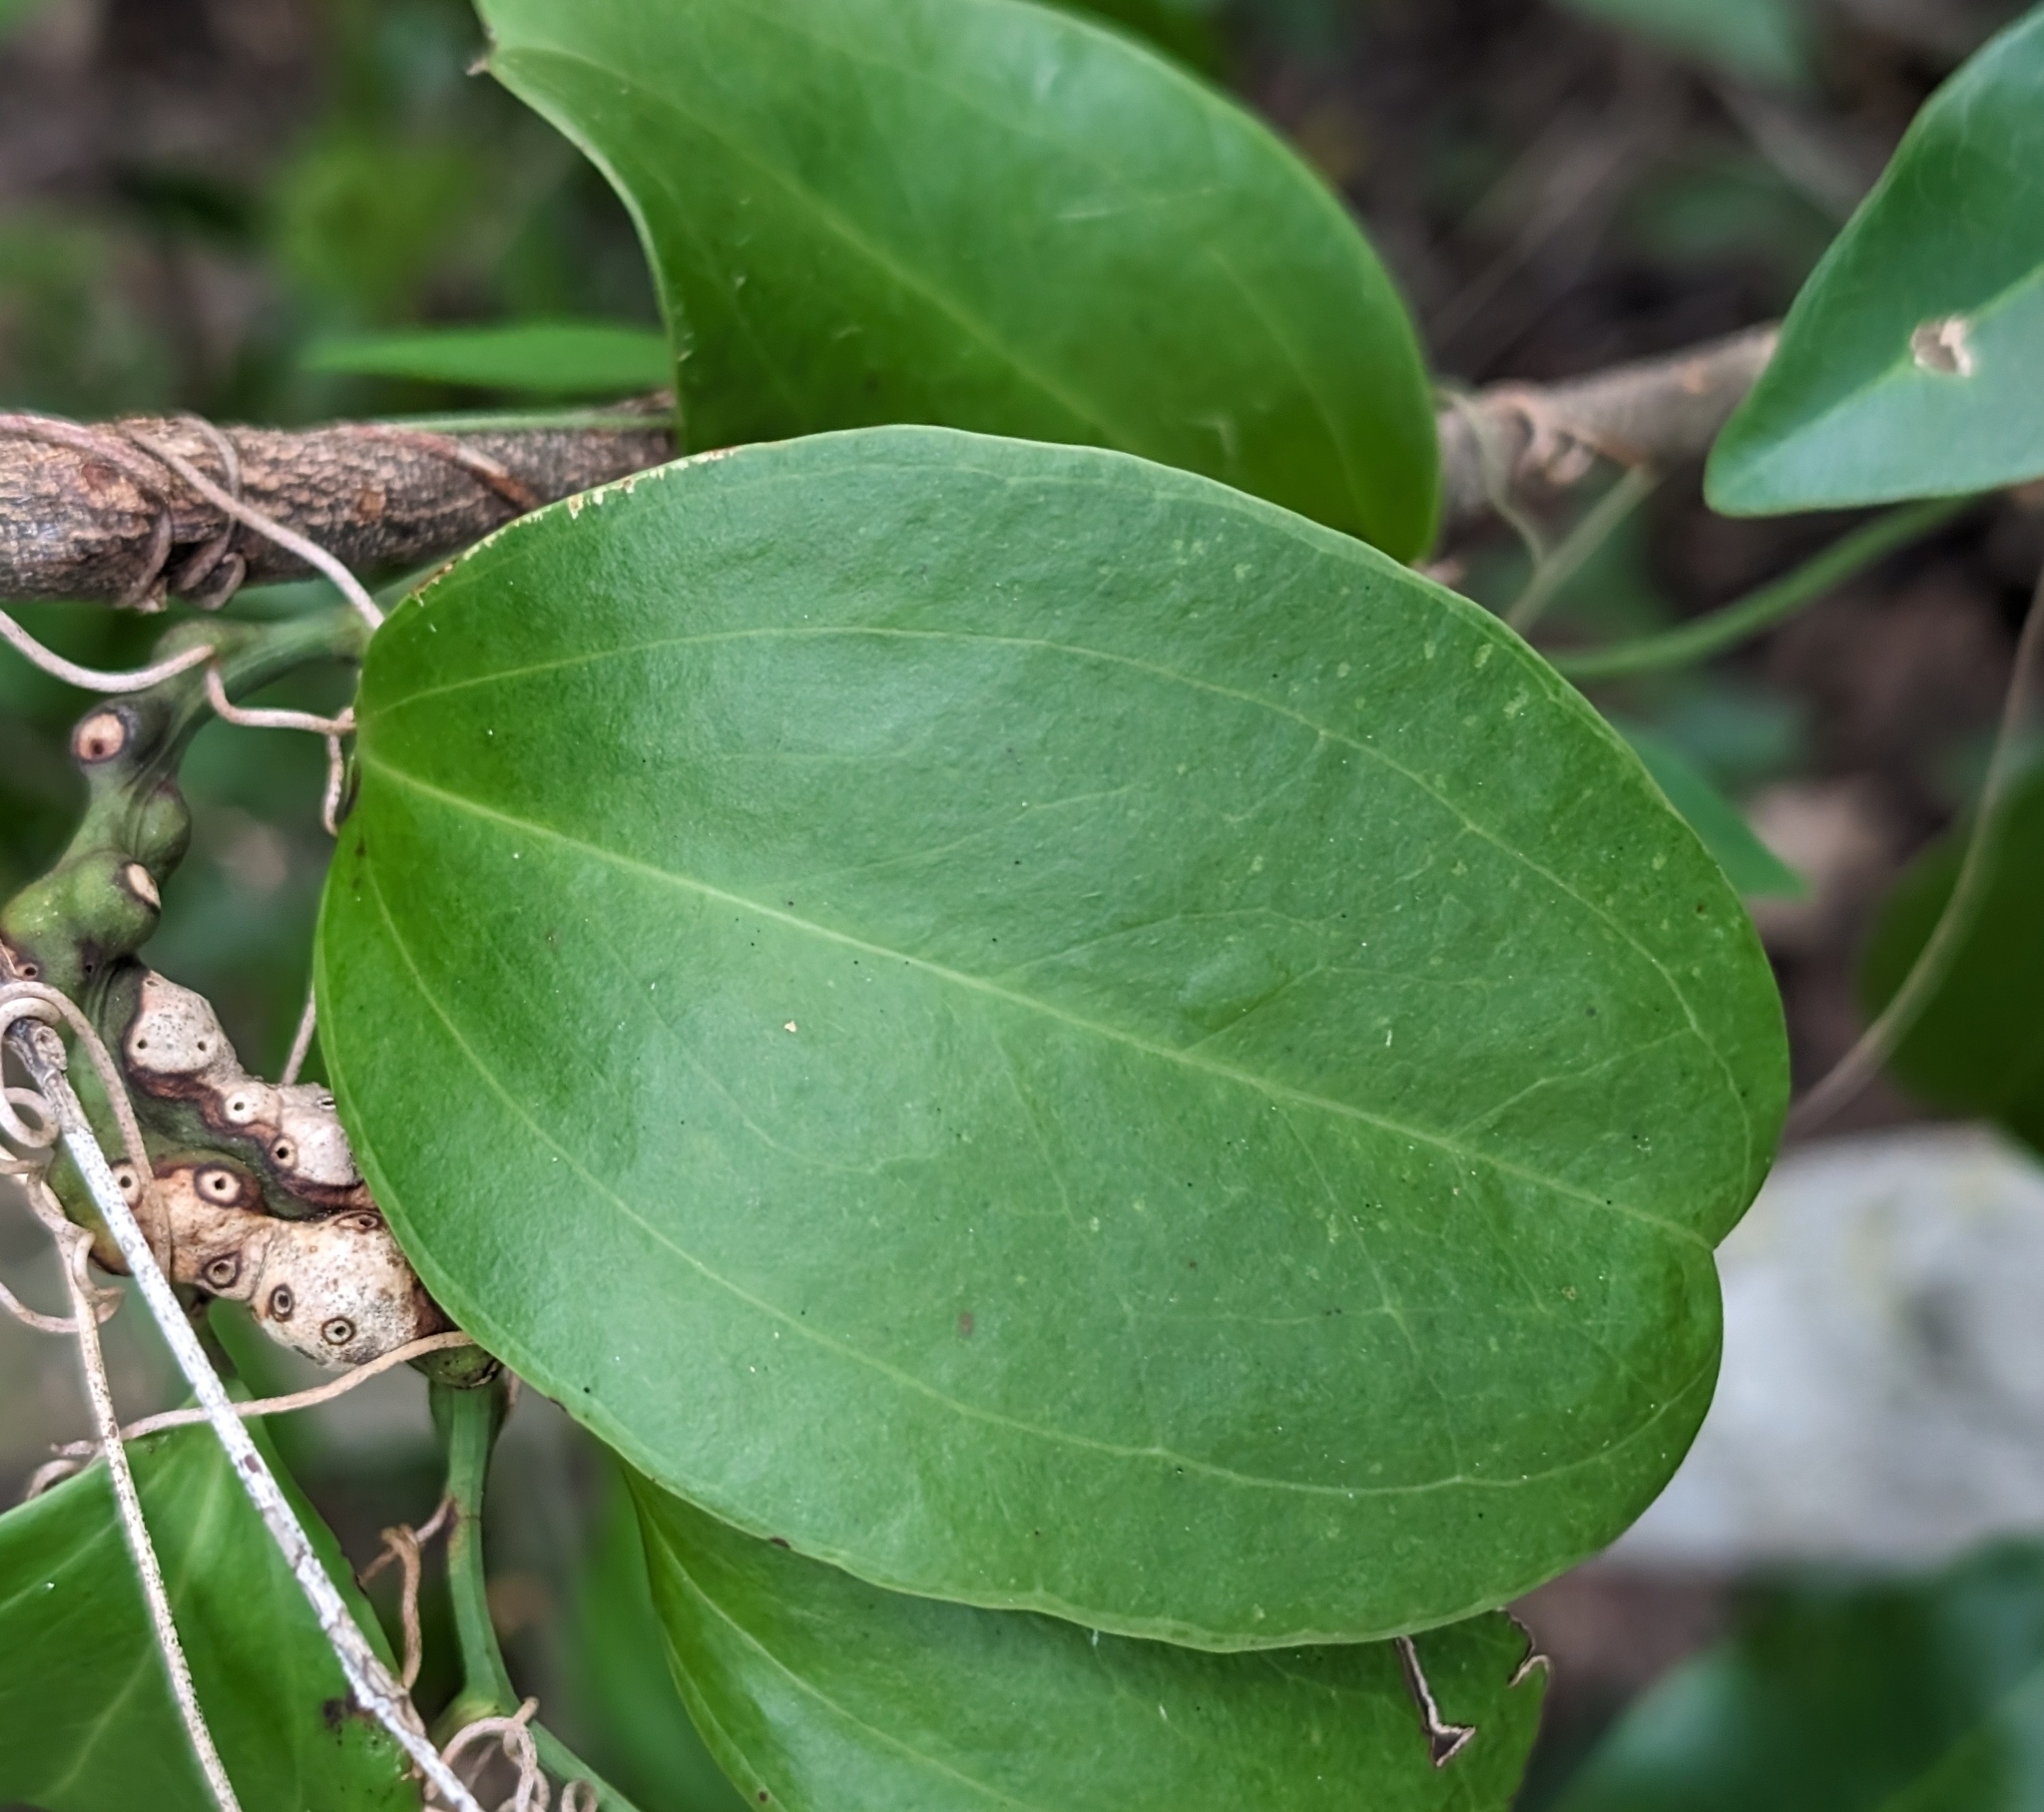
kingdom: Plantae
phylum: Tracheophyta
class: Liliopsida
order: Liliales
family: Smilacaceae
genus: Smilax
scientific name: Smilax havanensis
